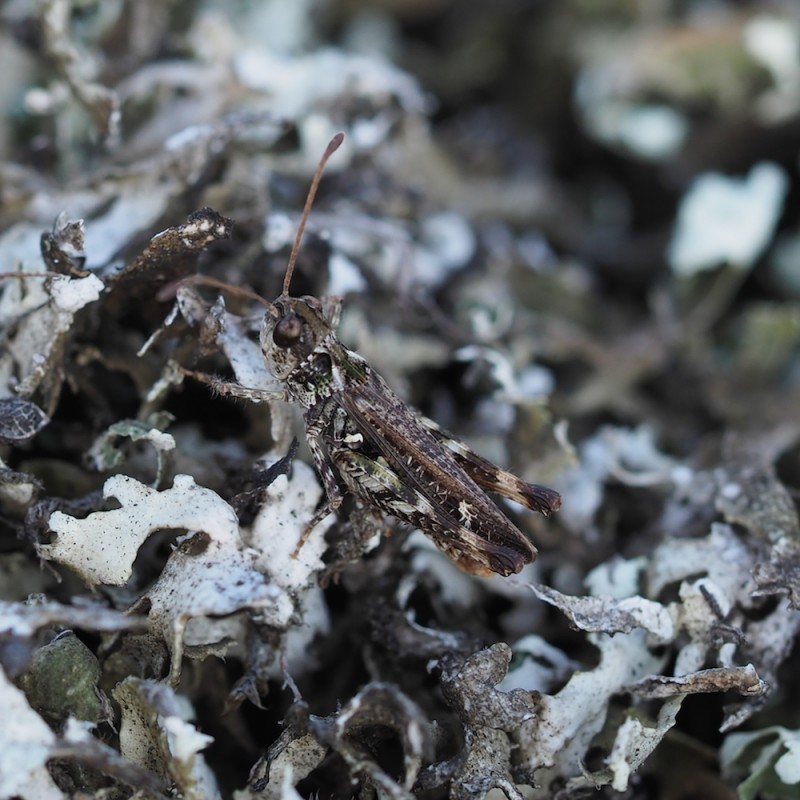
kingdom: Animalia
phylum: Arthropoda
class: Insecta
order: Orthoptera
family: Acrididae
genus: Myrmeleotettix
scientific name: Myrmeleotettix maculatus
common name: Mottled grasshopper
